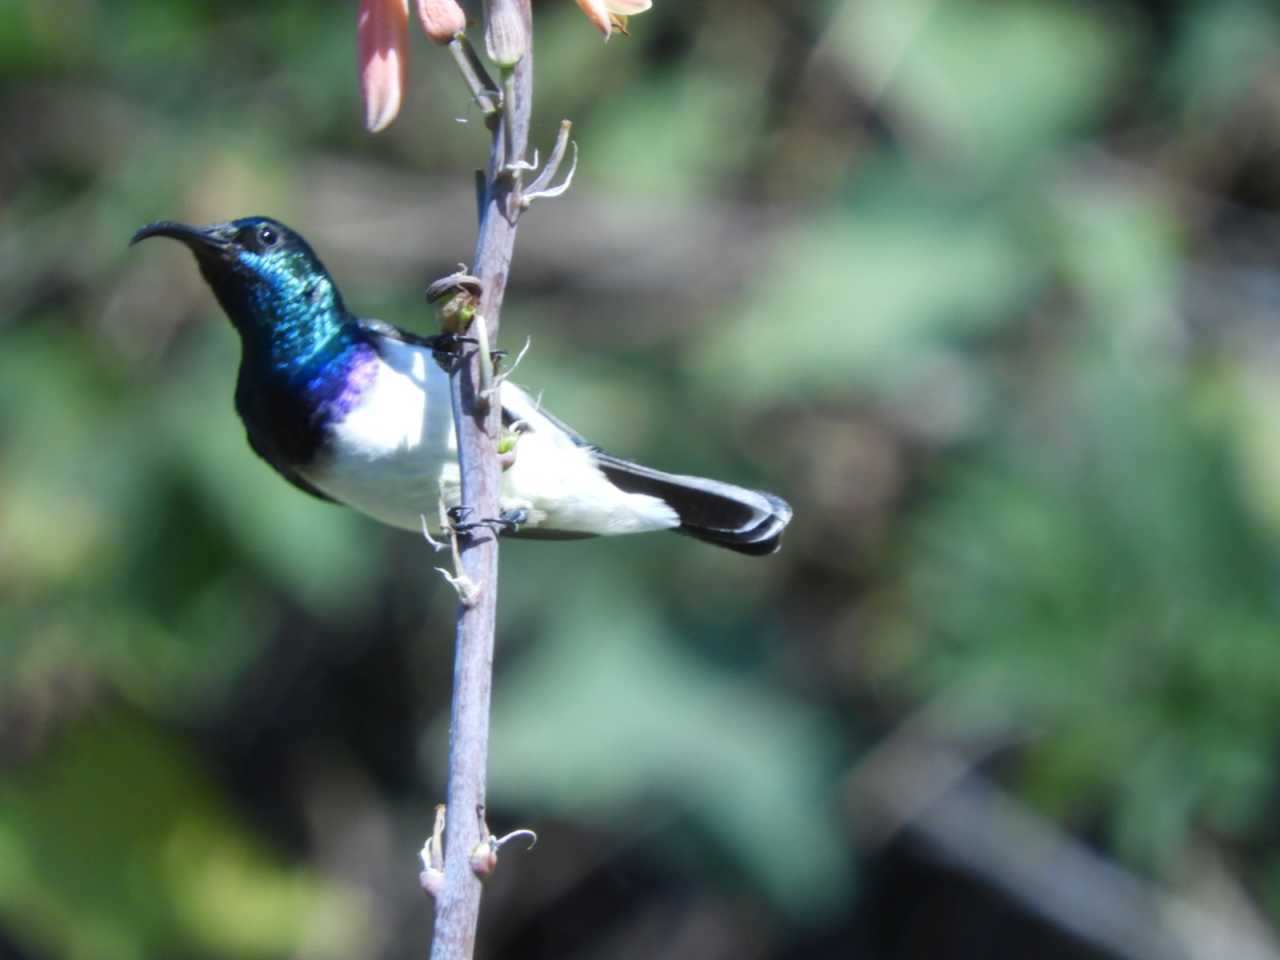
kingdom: Animalia
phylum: Chordata
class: Aves
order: Passeriformes
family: Nectariniidae
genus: Cinnyris
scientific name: Cinnyris talatala
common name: White-bellied sunbird
